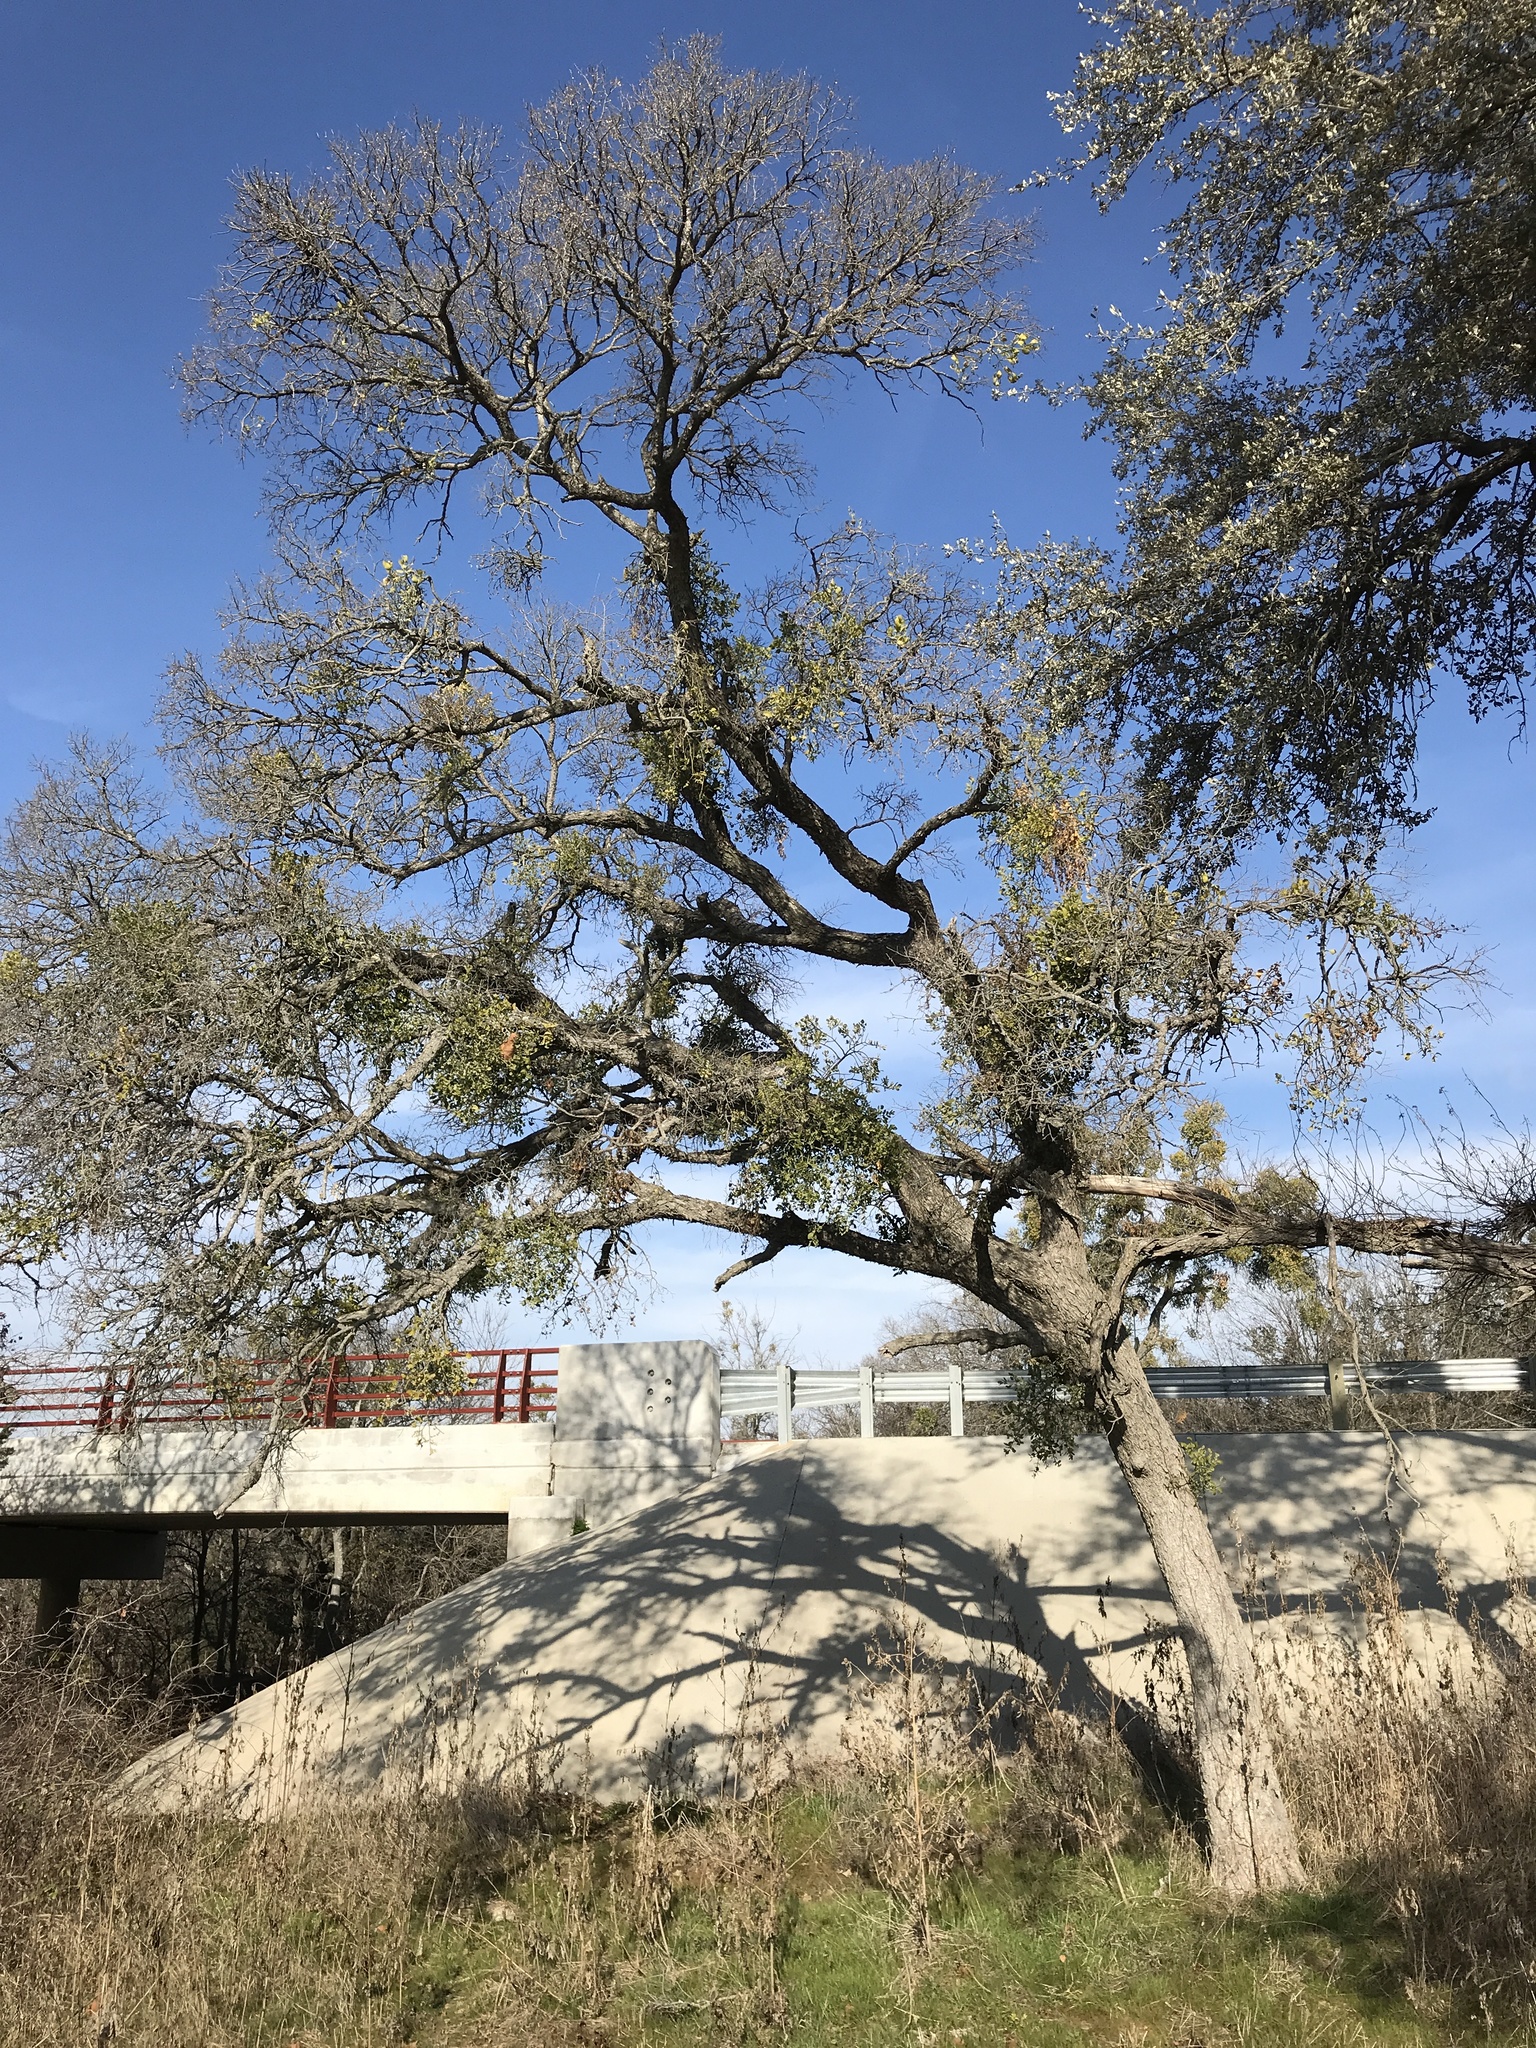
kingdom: Plantae
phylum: Tracheophyta
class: Magnoliopsida
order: Rosales
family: Ulmaceae
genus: Ulmus
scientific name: Ulmus crassifolia
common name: Basket elm
